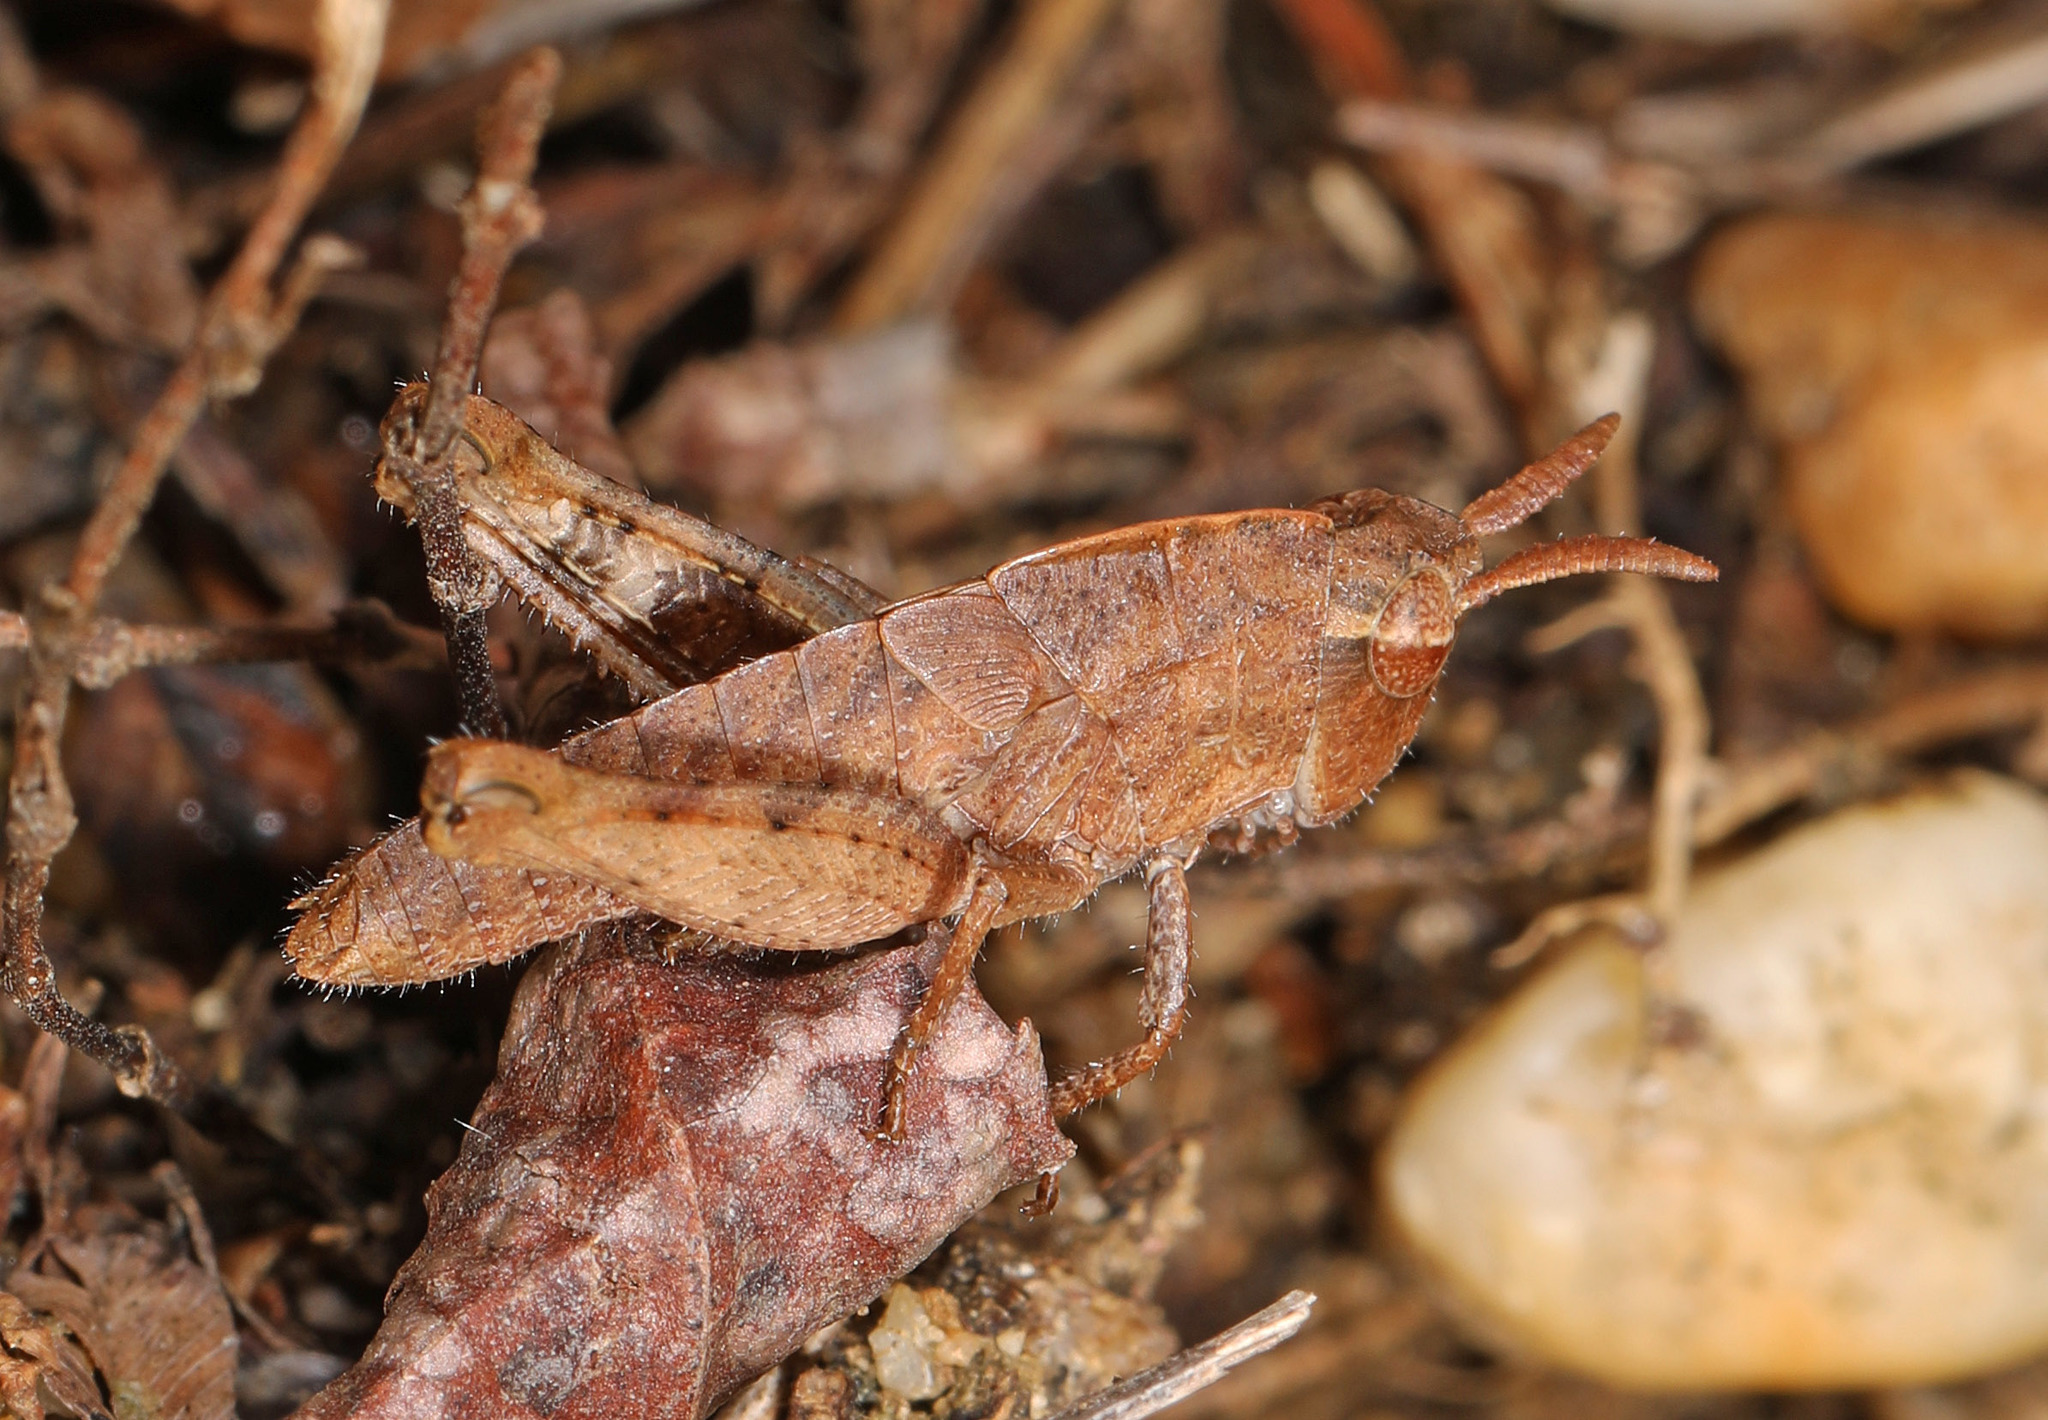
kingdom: Animalia
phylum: Arthropoda
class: Insecta
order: Orthoptera
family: Acrididae
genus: Chortophaga
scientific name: Chortophaga viridifasciata
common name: Green-striped grasshopper
